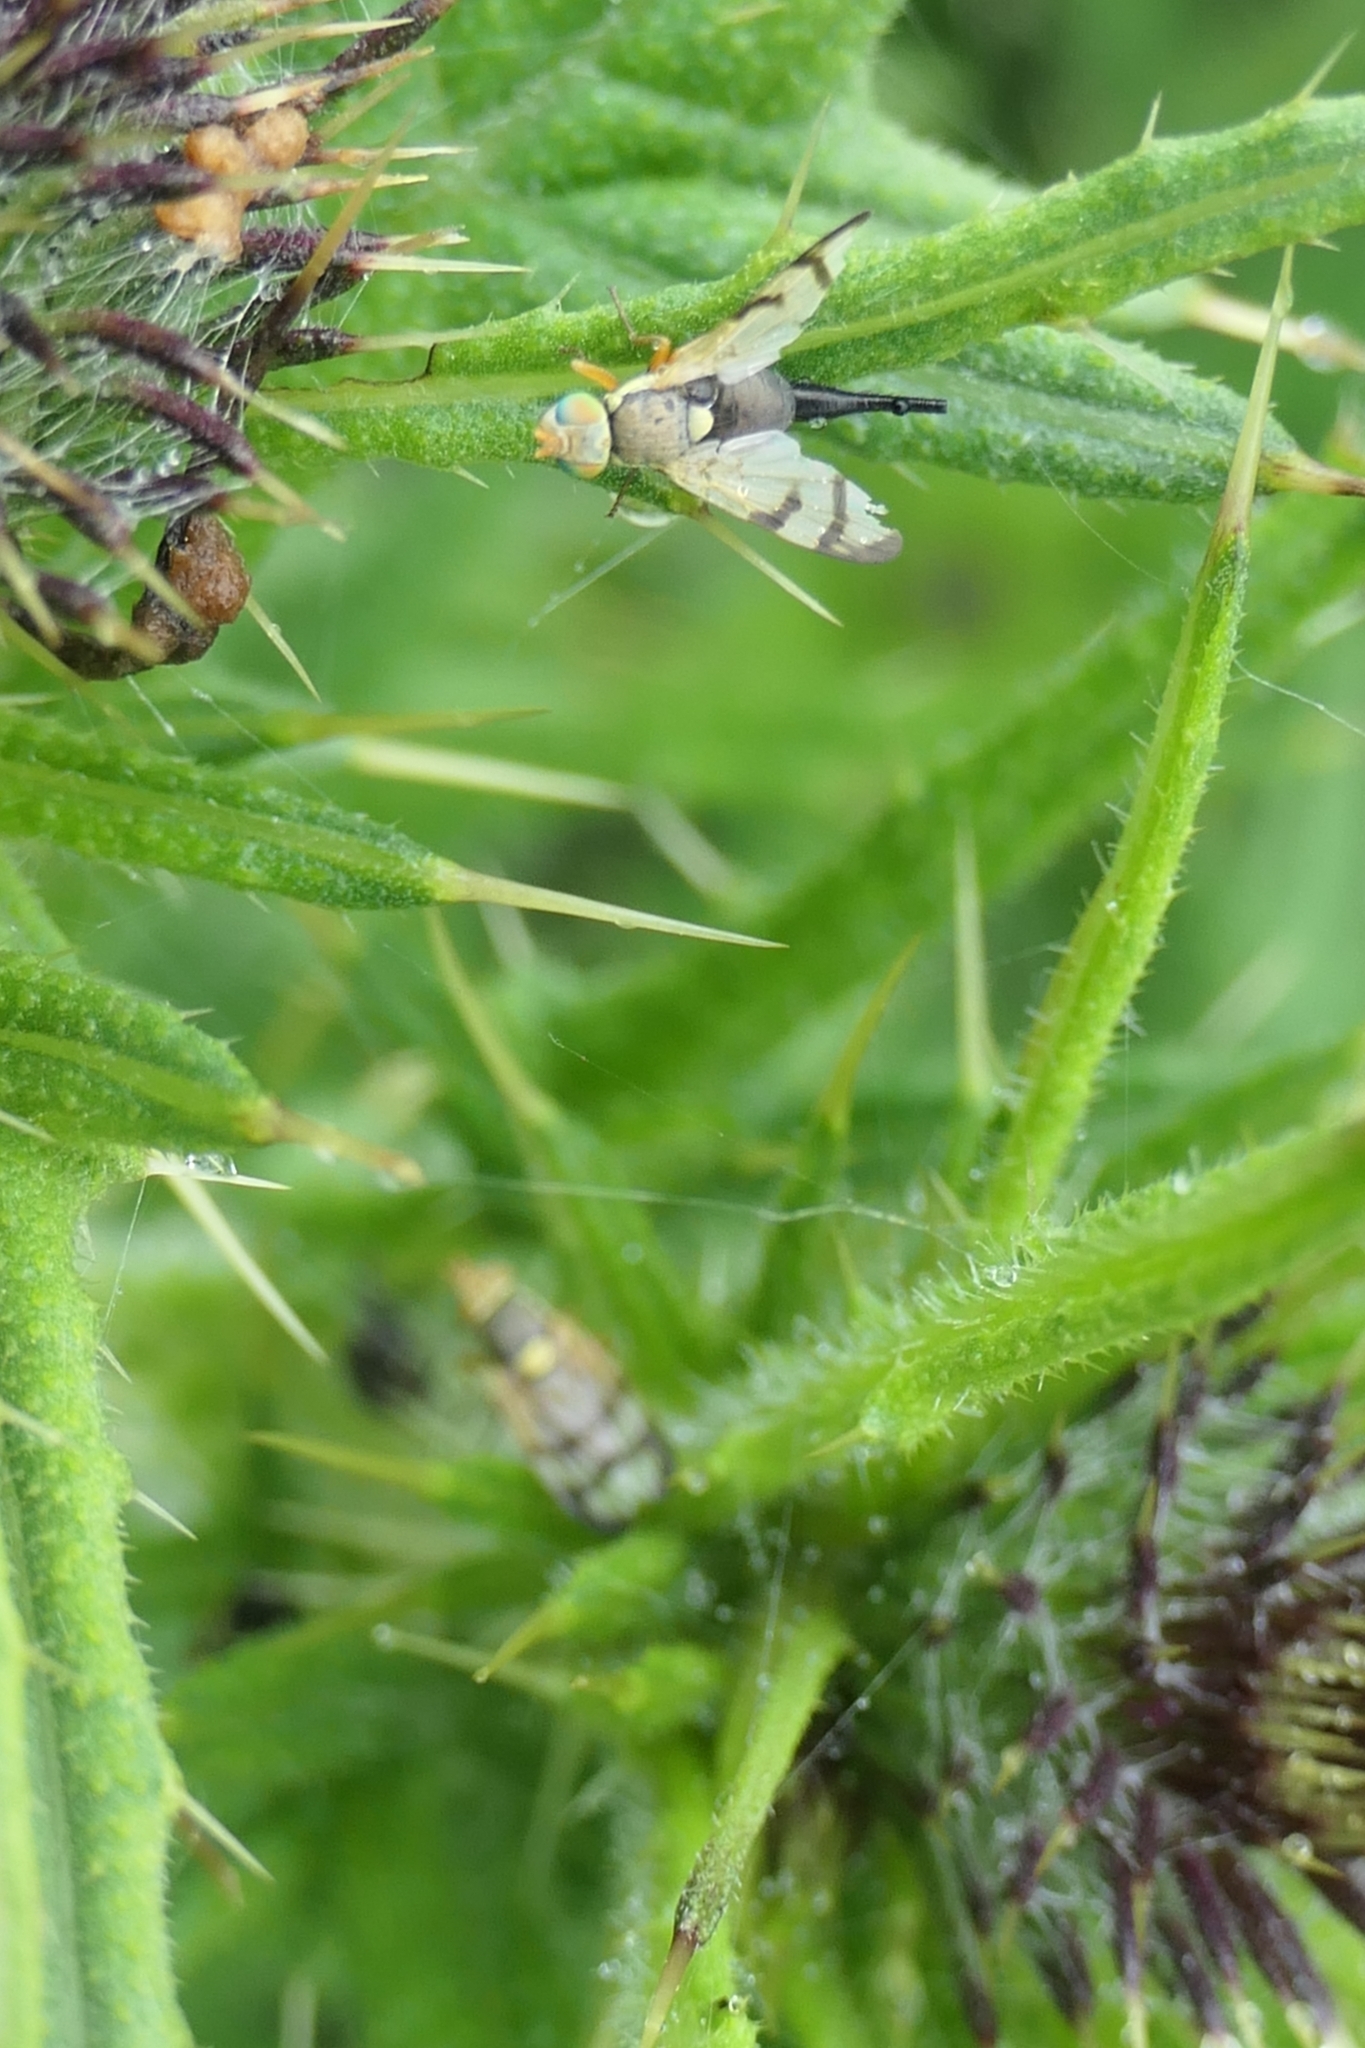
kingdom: Animalia
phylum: Arthropoda
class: Insecta
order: Diptera
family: Tephritidae
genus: Urophora
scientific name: Urophora stylata
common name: Fruit fly
